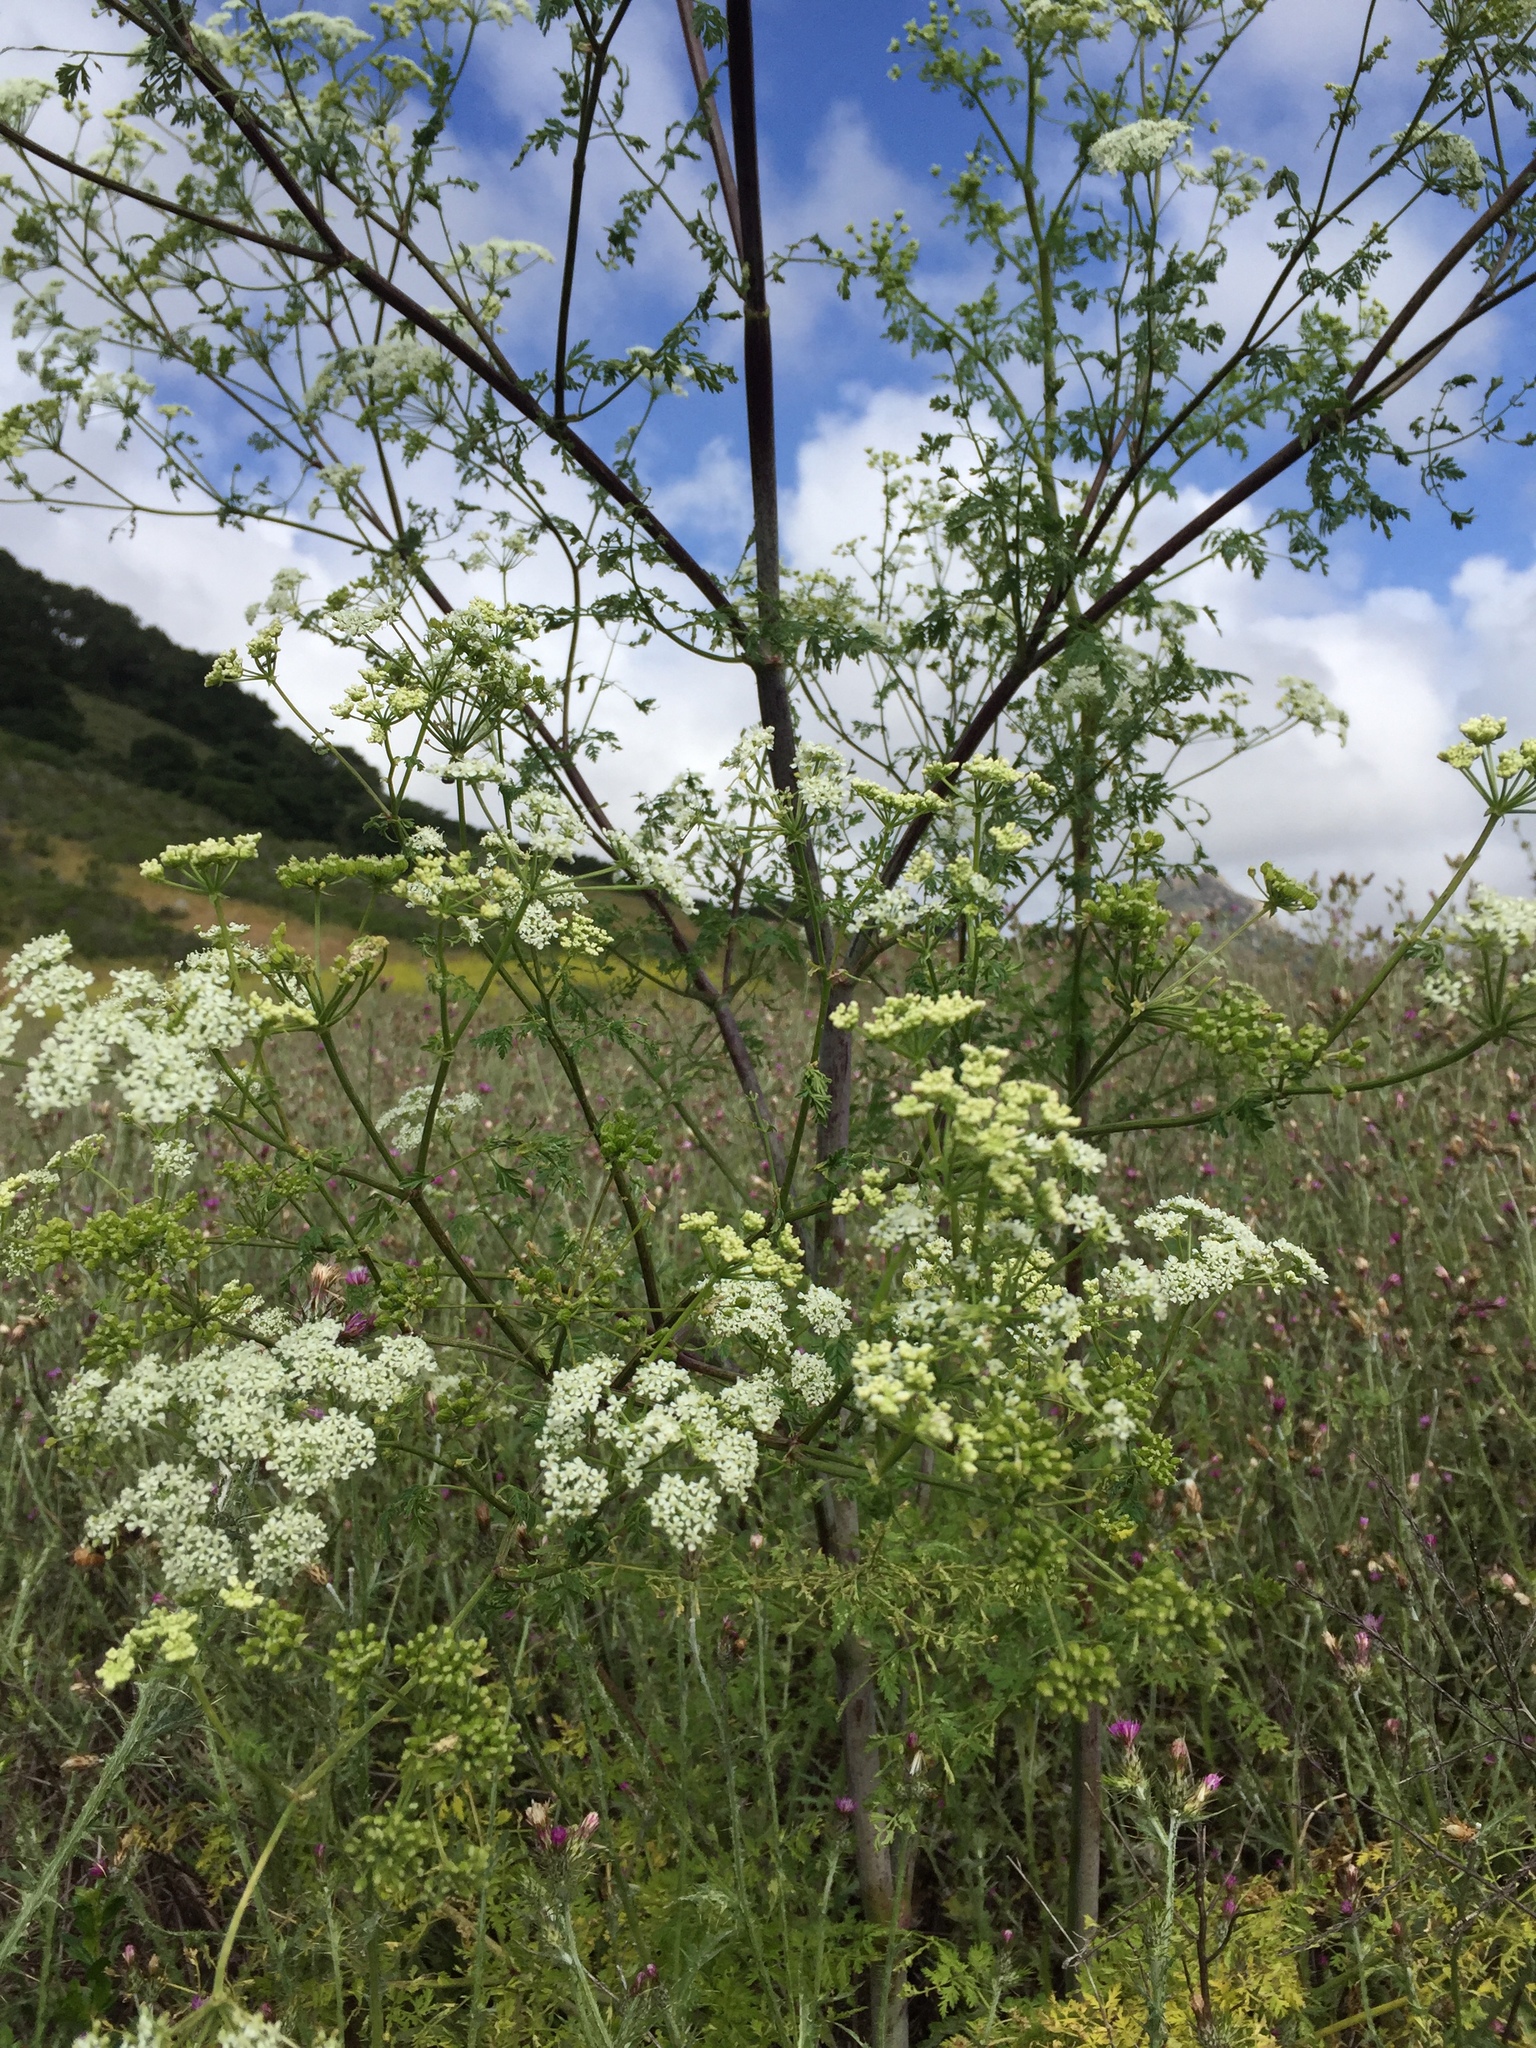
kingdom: Plantae
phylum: Tracheophyta
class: Magnoliopsida
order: Apiales
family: Apiaceae
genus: Conium
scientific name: Conium maculatum
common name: Hemlock
